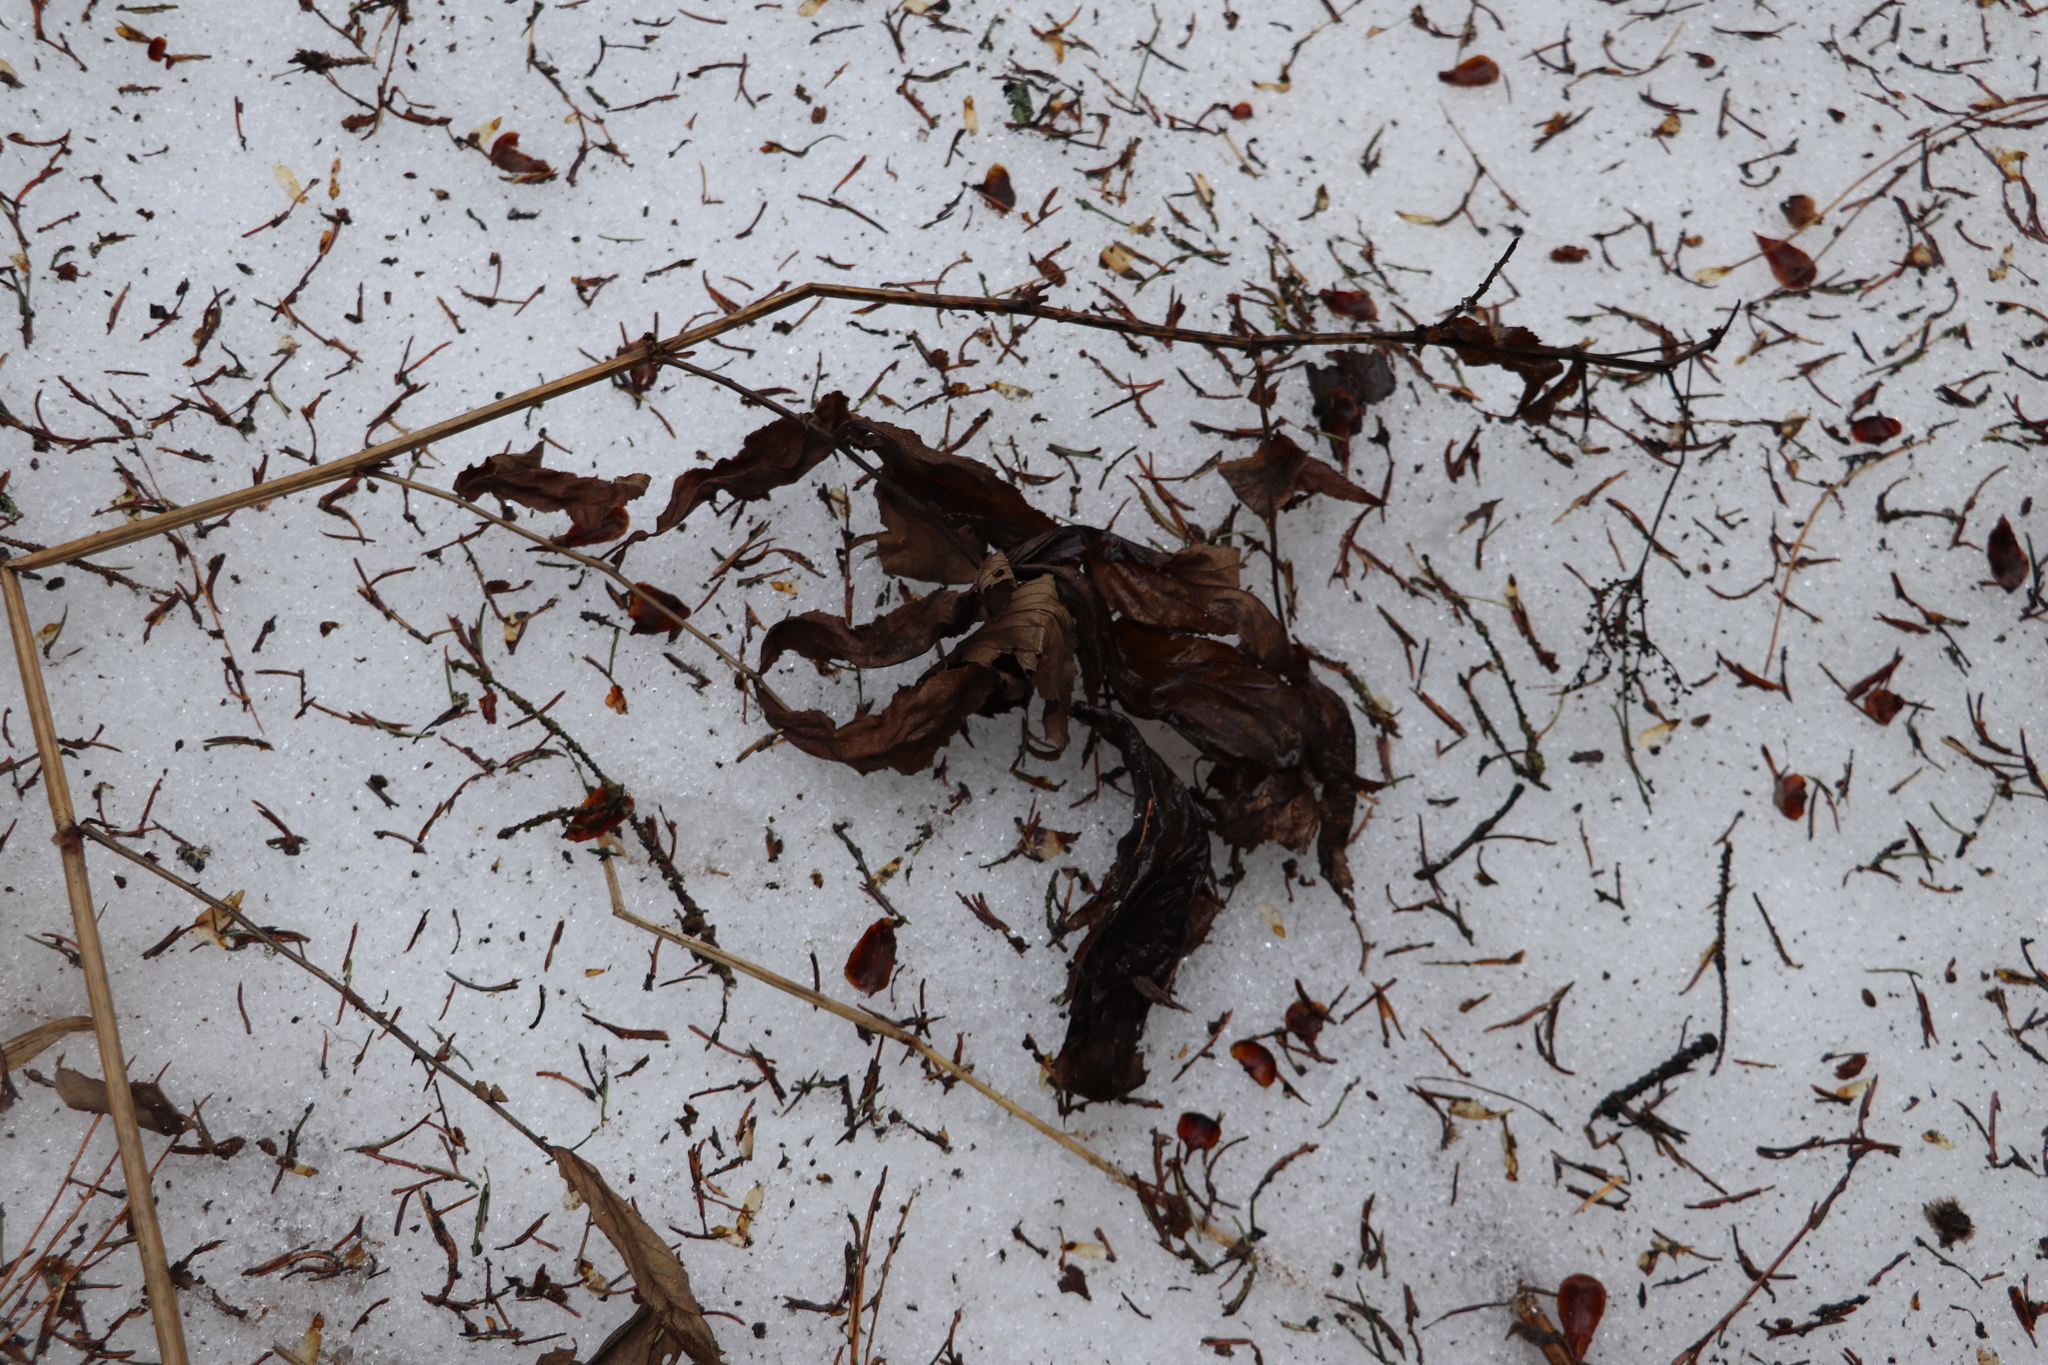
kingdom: Plantae
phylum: Tracheophyta
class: Magnoliopsida
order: Rosales
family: Rosaceae
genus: Filipendula
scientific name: Filipendula ulmaria
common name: Meadowsweet
